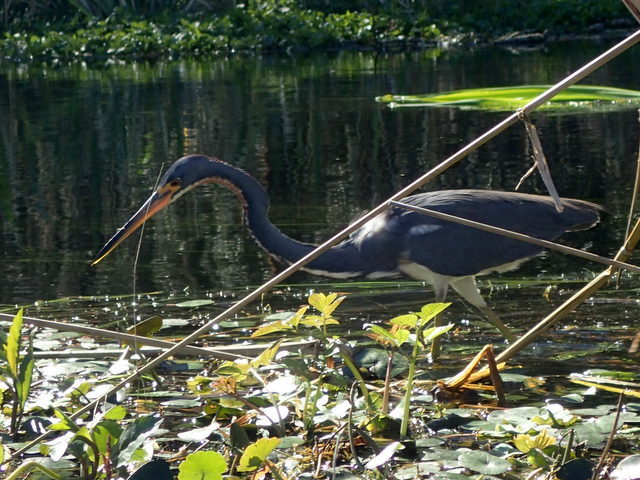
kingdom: Animalia
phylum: Chordata
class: Aves
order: Pelecaniformes
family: Ardeidae
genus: Egretta
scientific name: Egretta tricolor
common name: Tricolored heron
